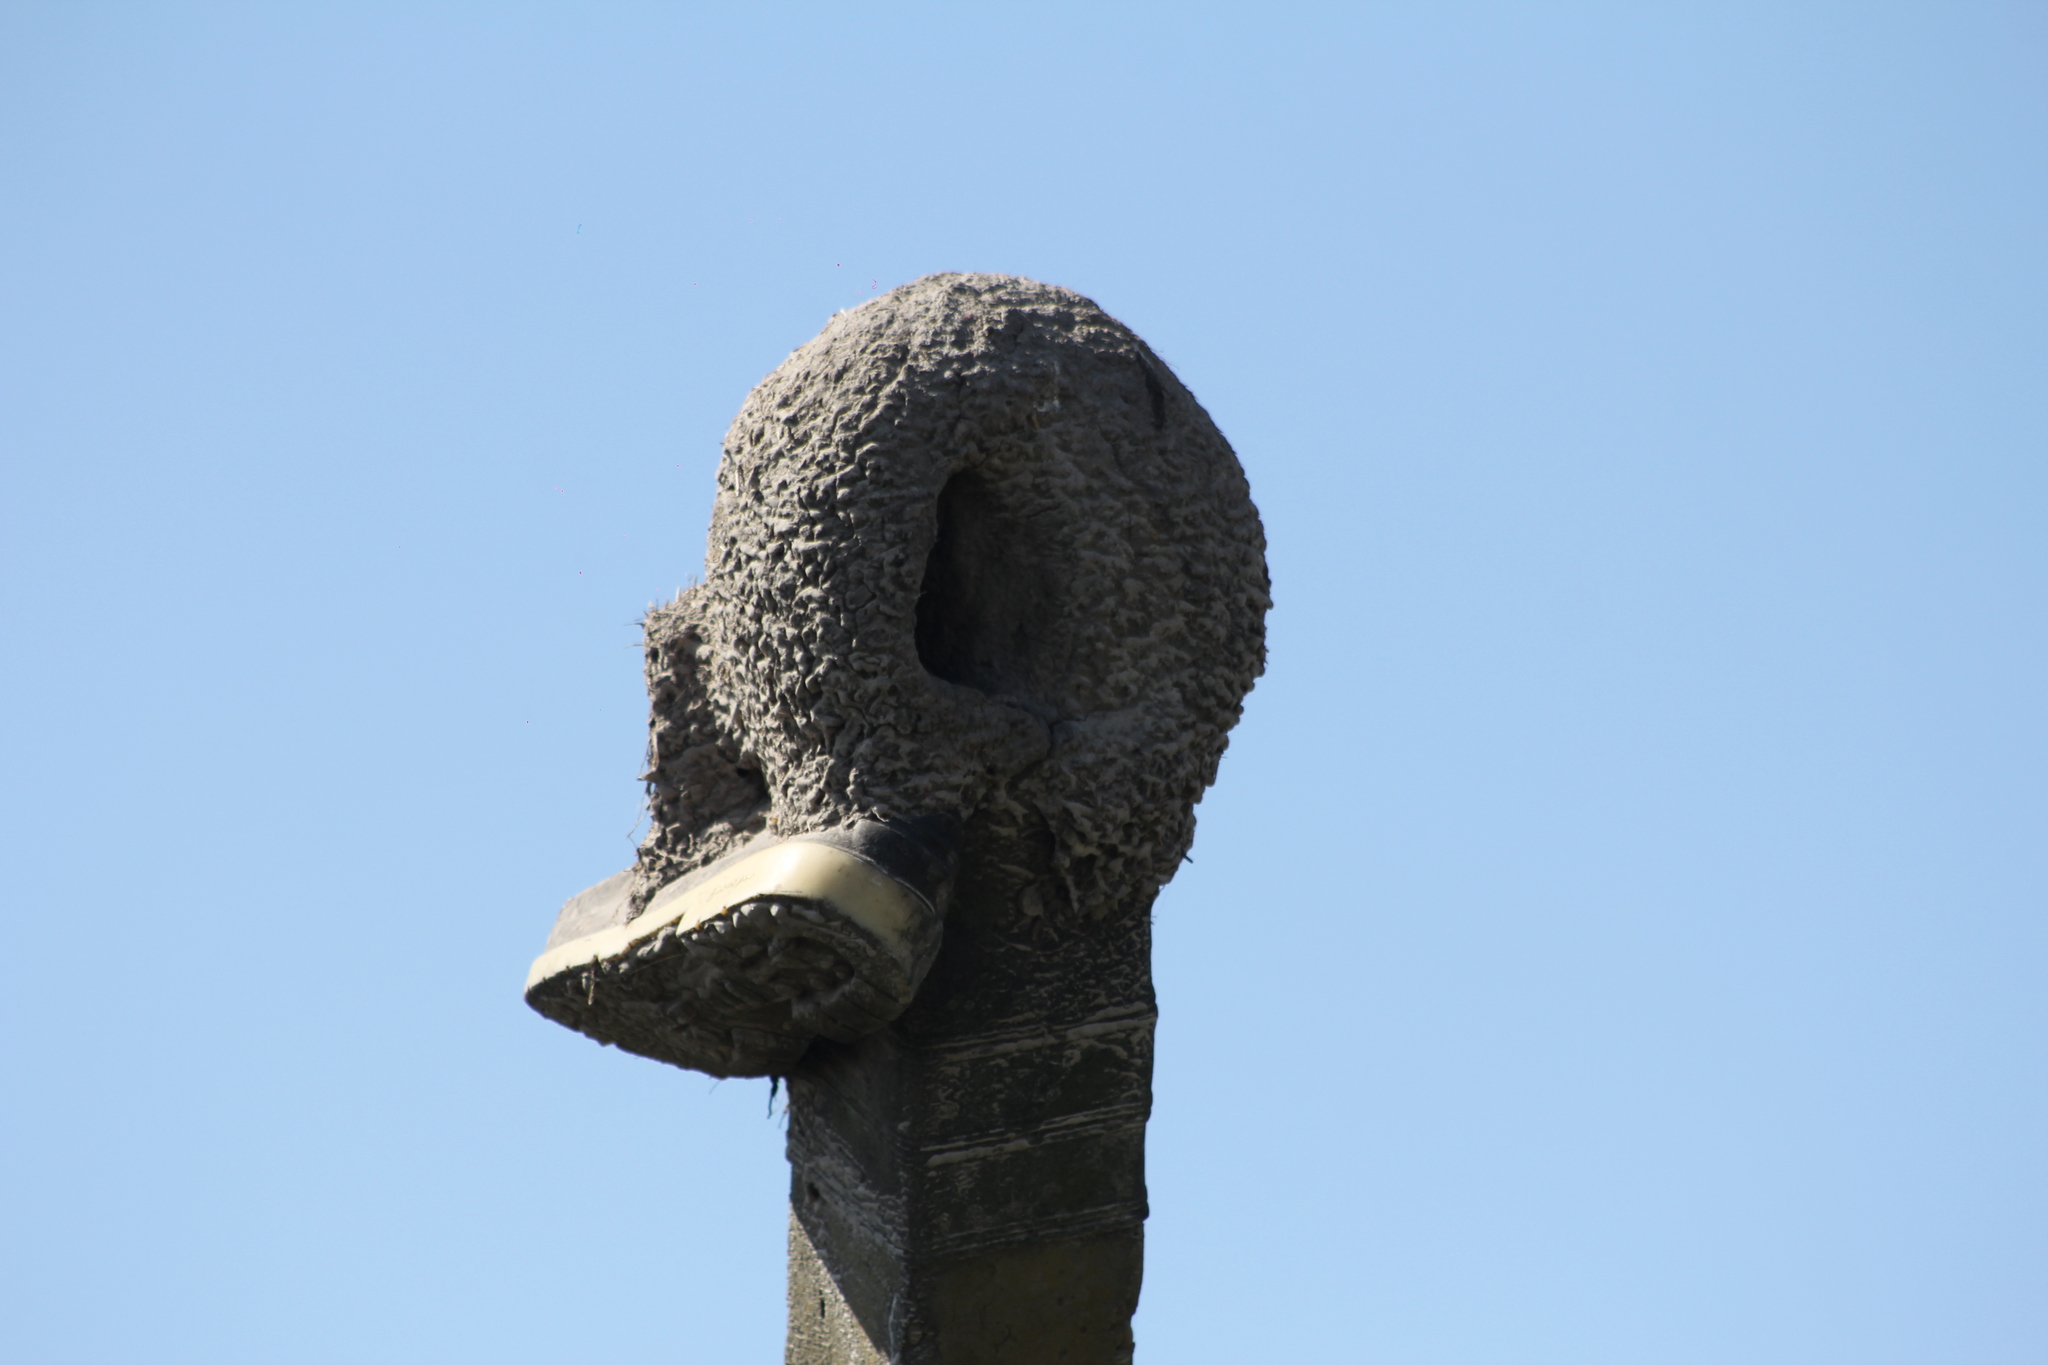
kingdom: Animalia
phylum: Chordata
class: Aves
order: Passeriformes
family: Furnariidae
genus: Furnarius
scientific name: Furnarius rufus
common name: Rufous hornero
